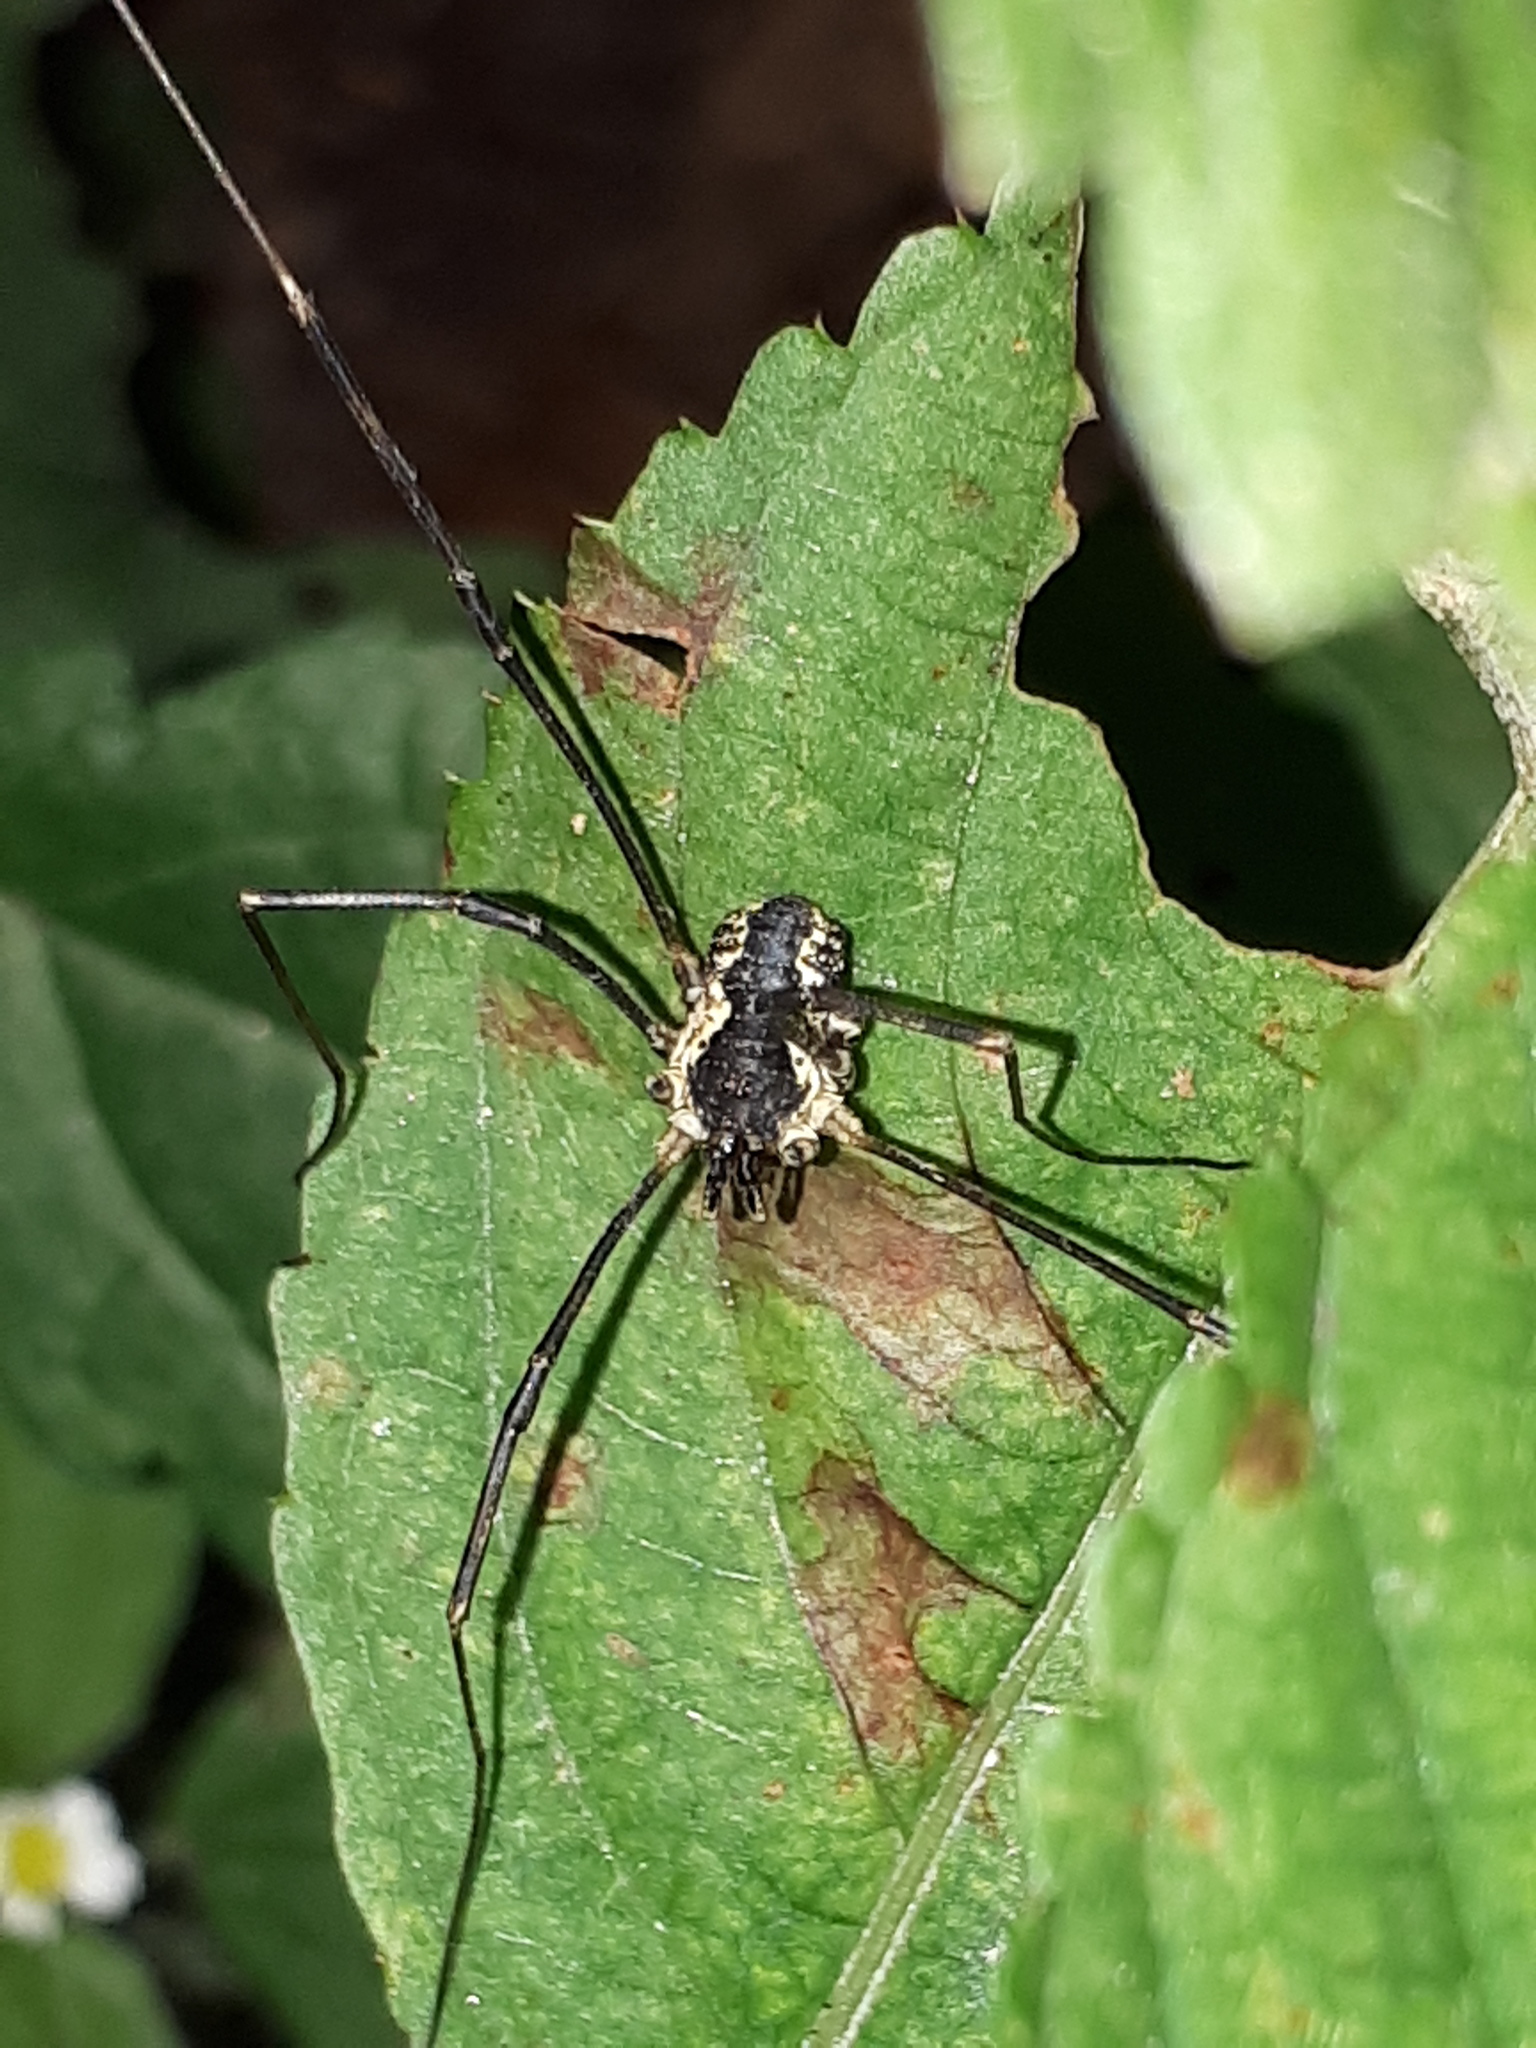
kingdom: Animalia
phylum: Arthropoda
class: Arachnida
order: Opiliones
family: Phalangiidae
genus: Mitopus
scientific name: Mitopus morio
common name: Saddleback harvestman
